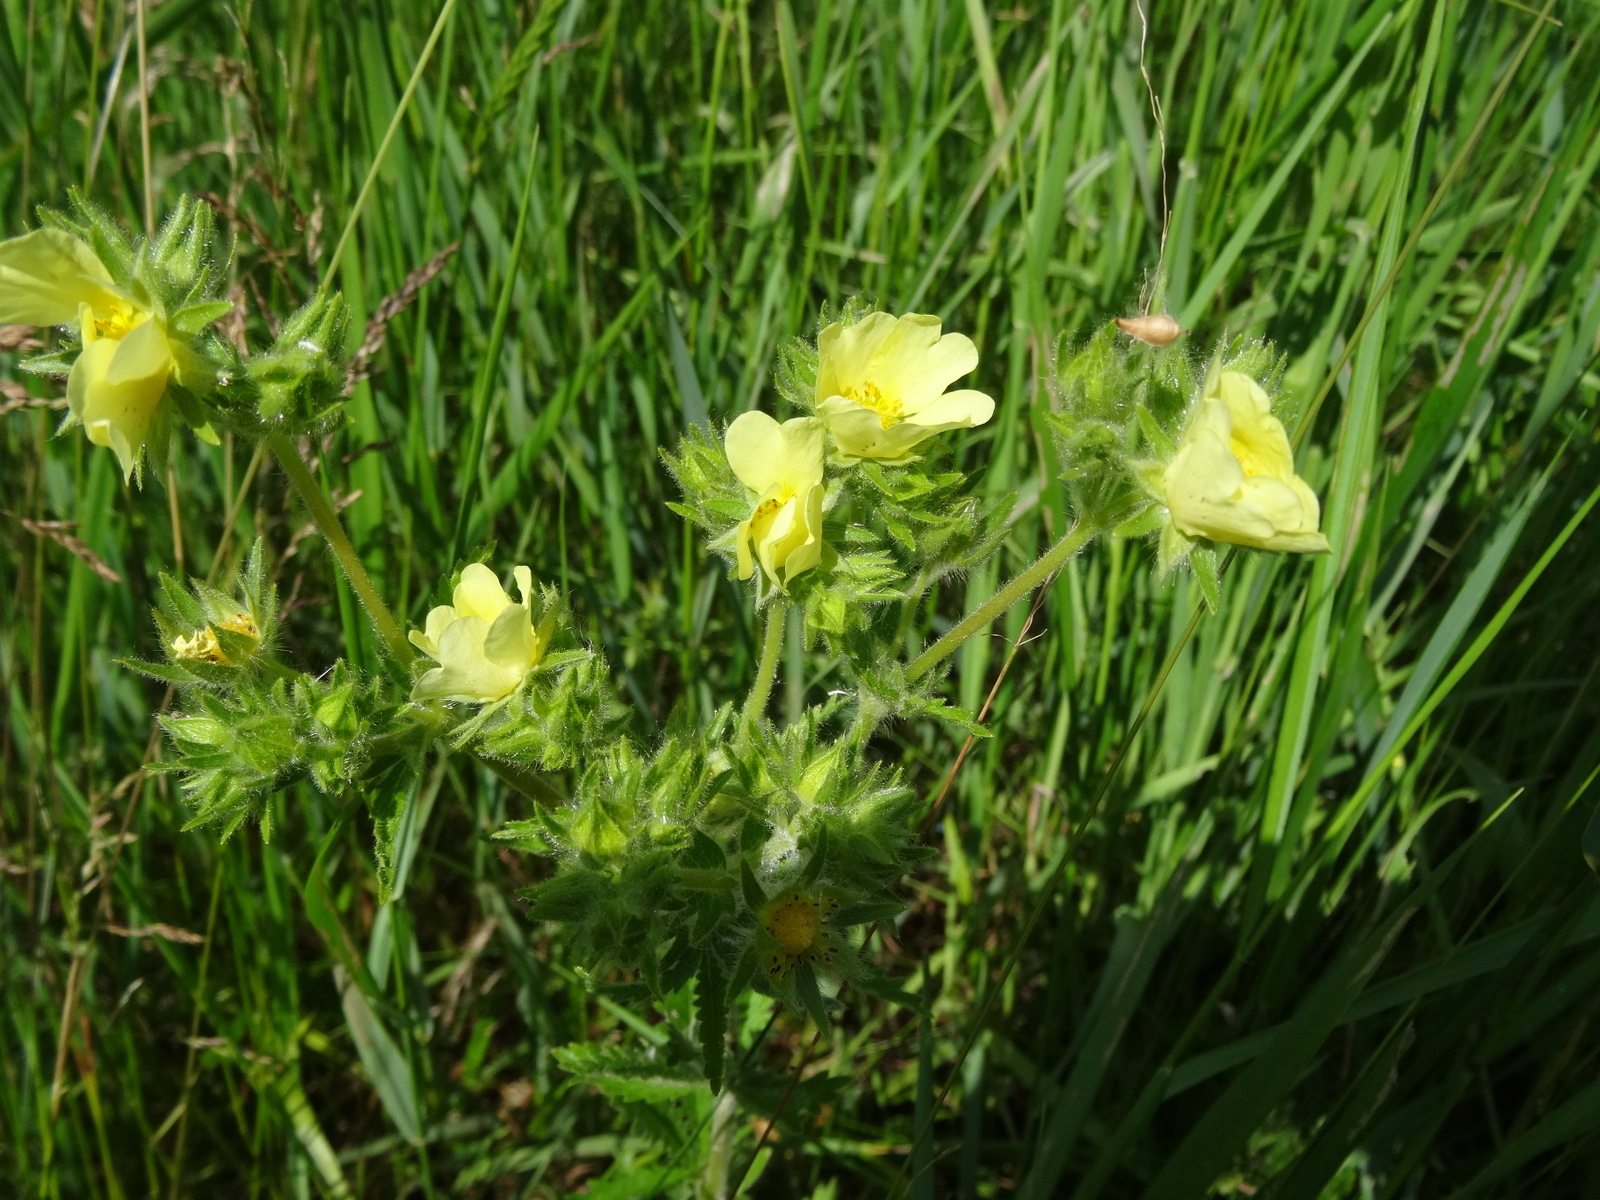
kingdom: Plantae
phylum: Tracheophyta
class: Magnoliopsida
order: Rosales
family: Rosaceae
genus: Potentilla
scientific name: Potentilla recta
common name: Sulphur cinquefoil
